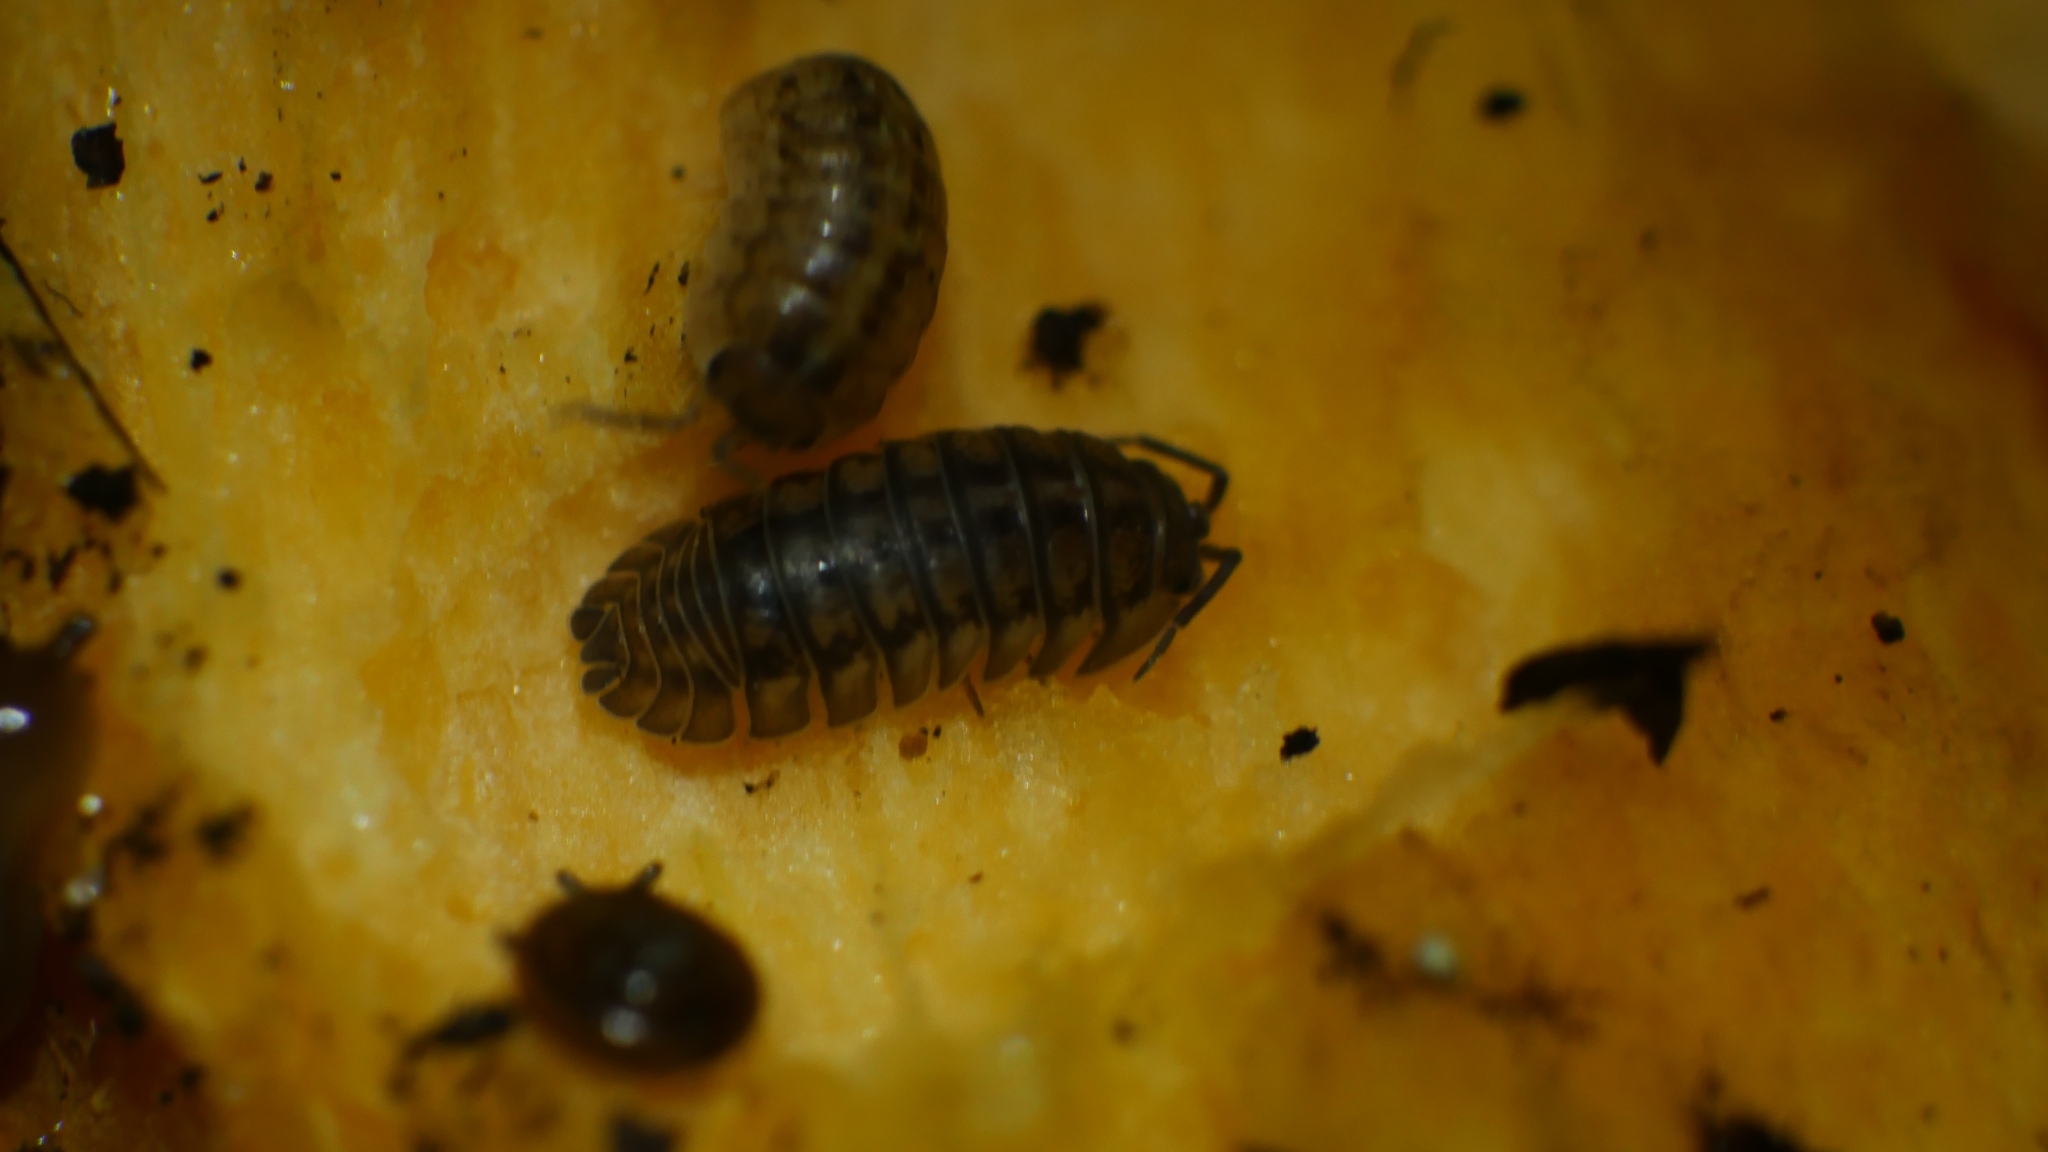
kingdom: Animalia
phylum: Arthropoda
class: Malacostraca
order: Isopoda
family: Armadillidiidae
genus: Armadillidium
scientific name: Armadillidium nasatum
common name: Isopod
